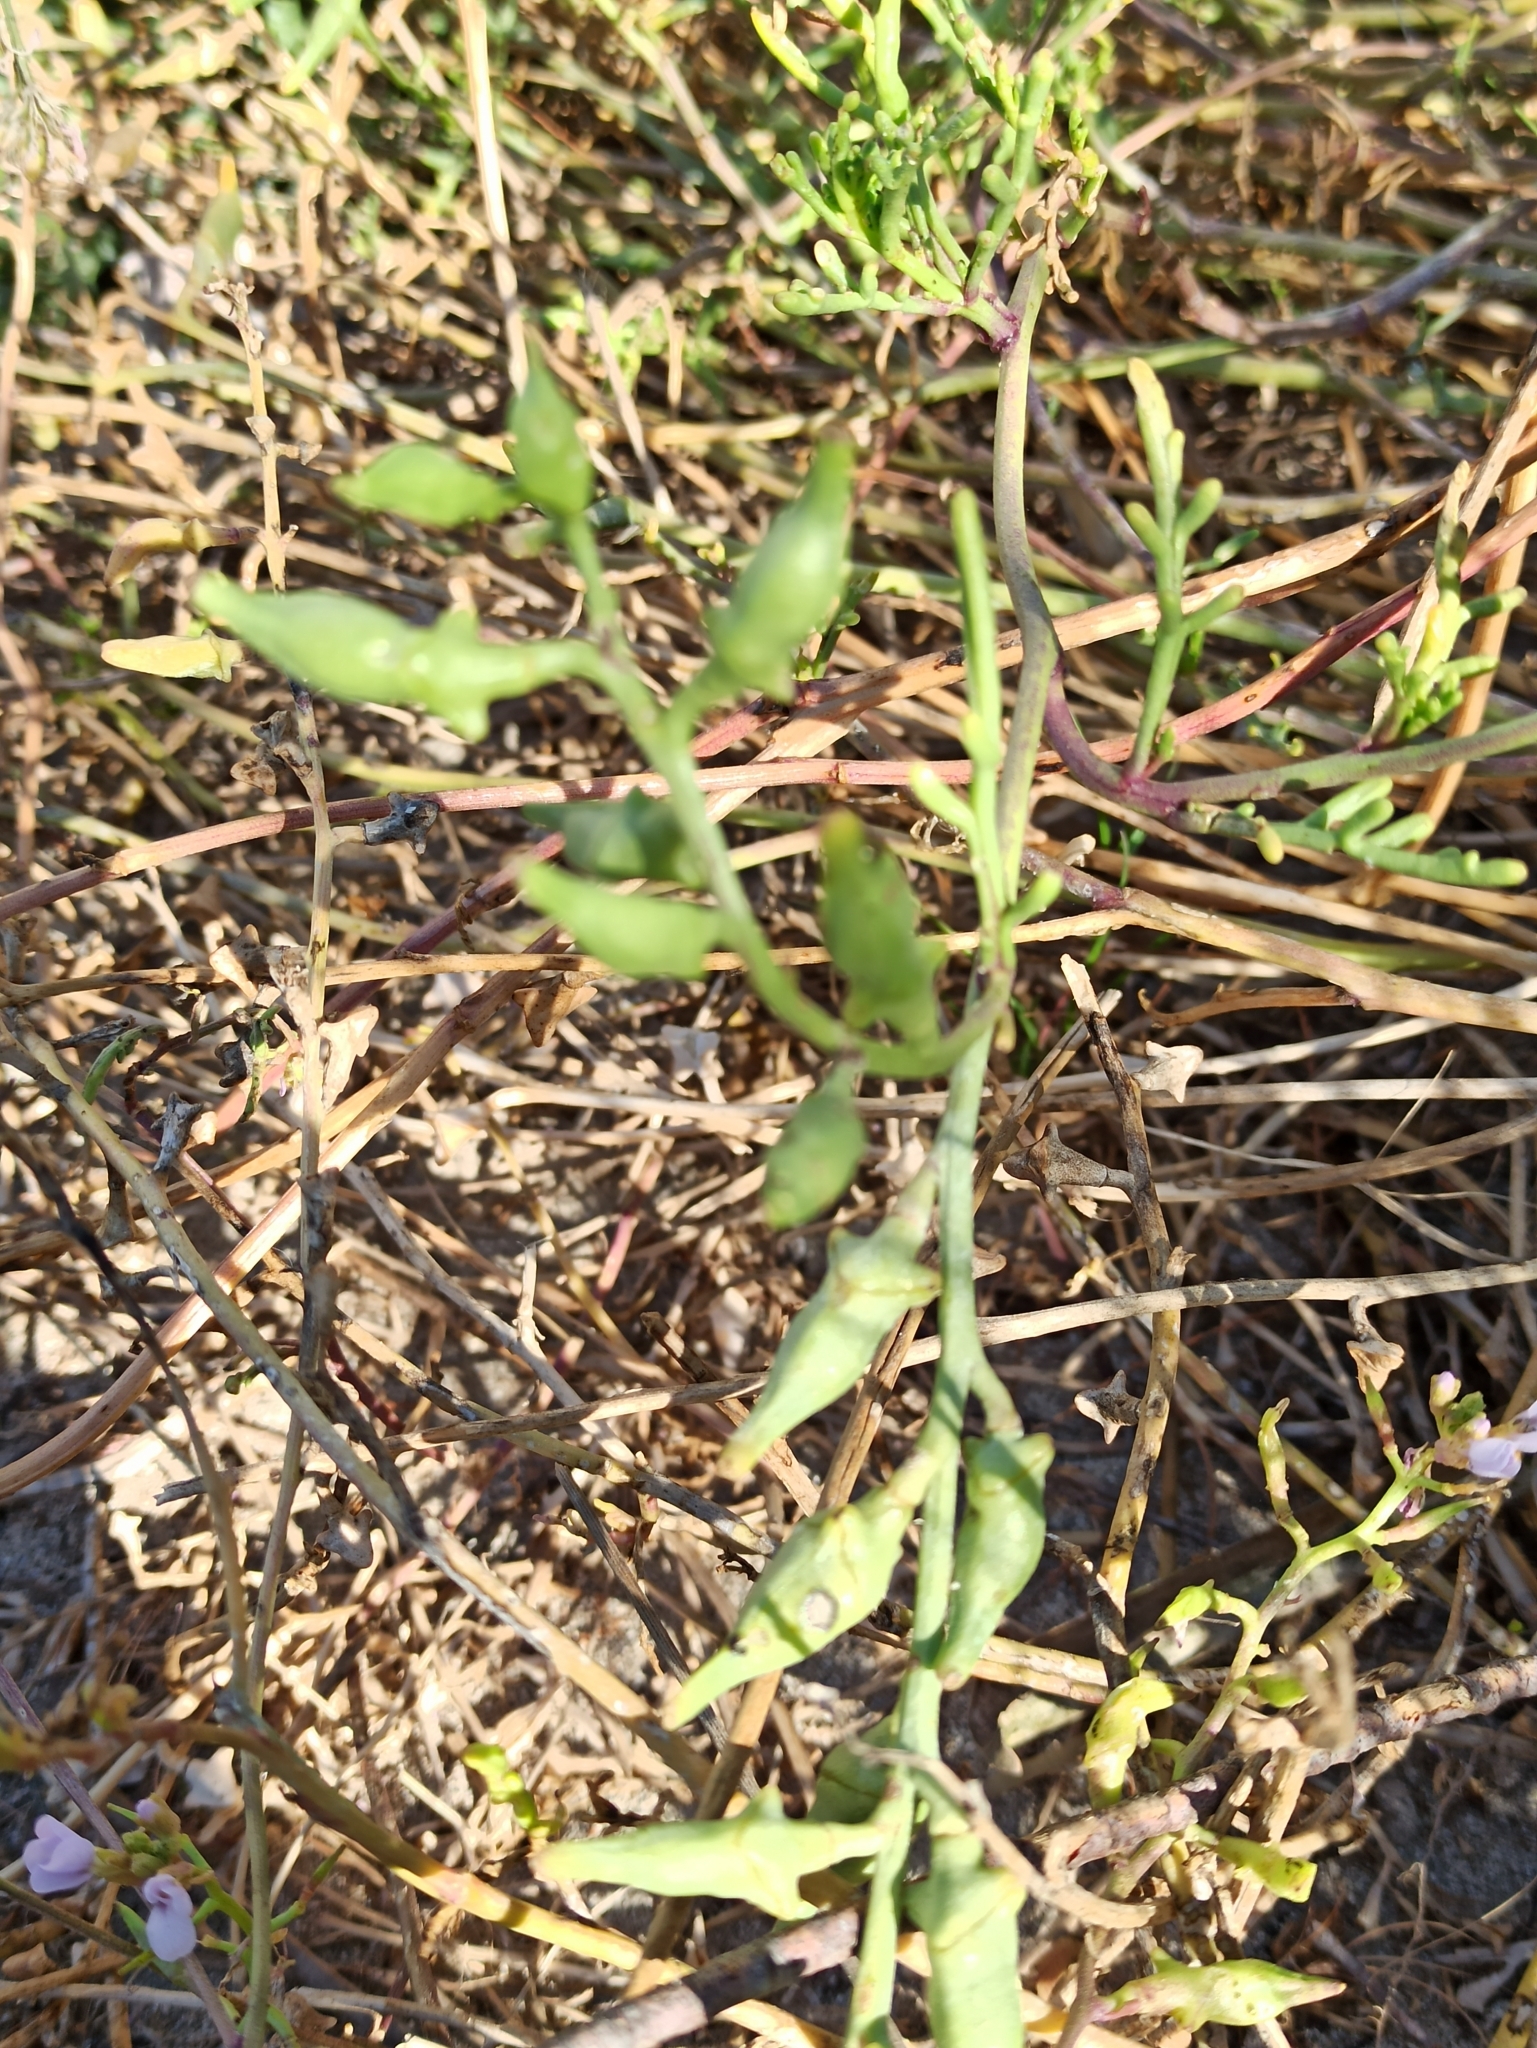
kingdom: Plantae
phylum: Tracheophyta
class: Magnoliopsida
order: Brassicales
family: Brassicaceae
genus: Cakile
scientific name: Cakile maritima
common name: Sea rocket
